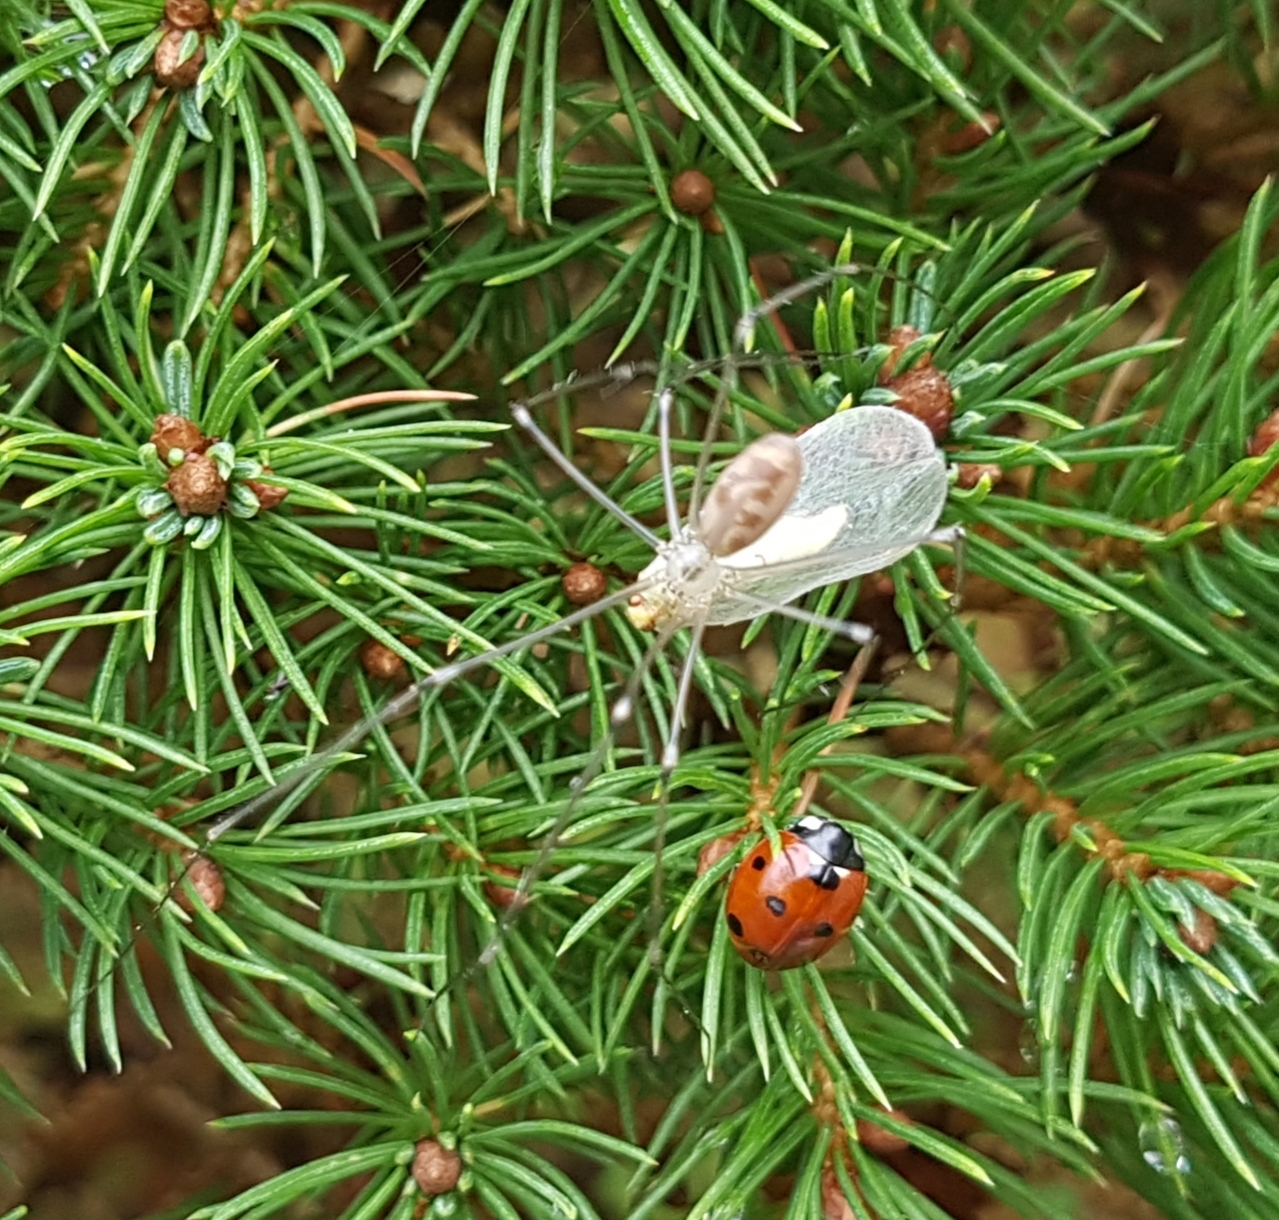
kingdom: Animalia
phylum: Arthropoda
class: Insecta
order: Coleoptera
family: Coccinellidae
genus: Coccinella
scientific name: Coccinella septempunctata
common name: Sevenspotted lady beetle
